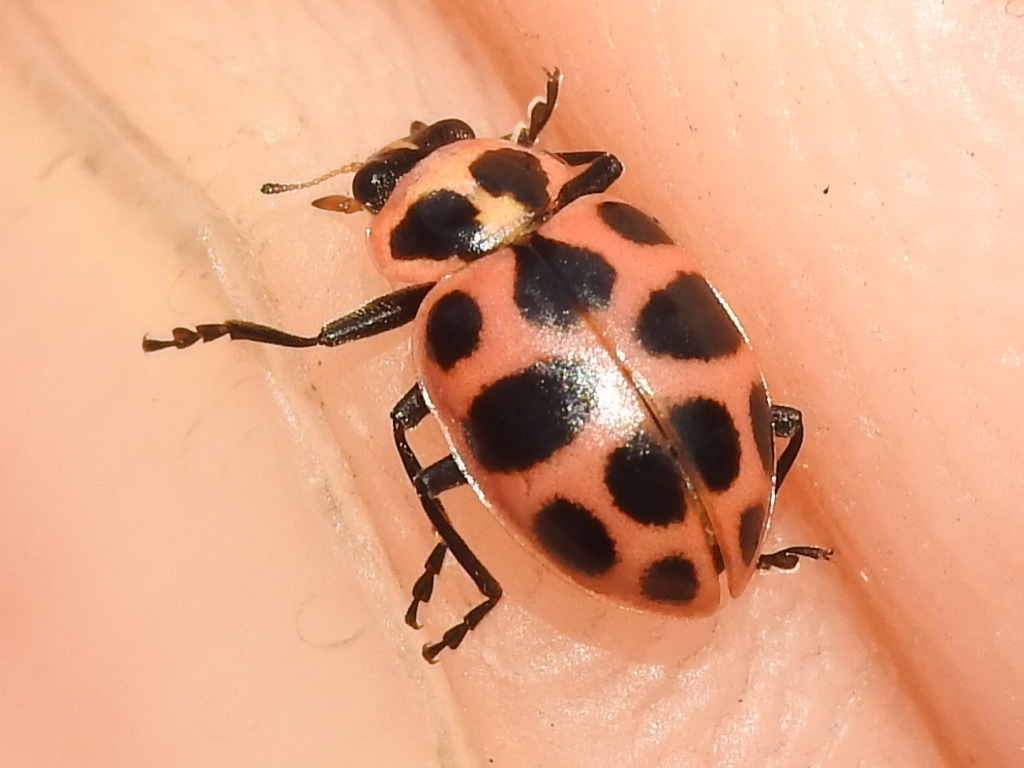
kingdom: Animalia
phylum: Arthropoda
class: Insecta
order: Coleoptera
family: Coccinellidae
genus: Coleomegilla
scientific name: Coleomegilla maculata
